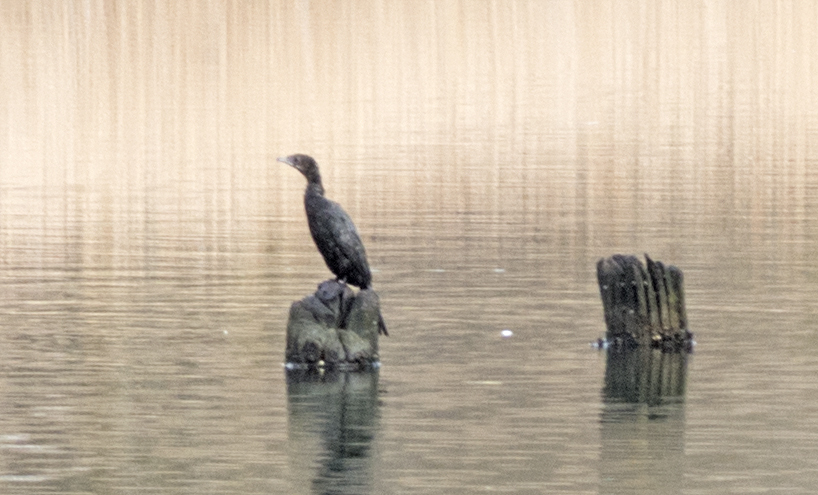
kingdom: Animalia
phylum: Chordata
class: Aves
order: Suliformes
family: Phalacrocoracidae
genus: Microcarbo
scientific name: Microcarbo pygmaeus
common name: Pygmy cormorant
